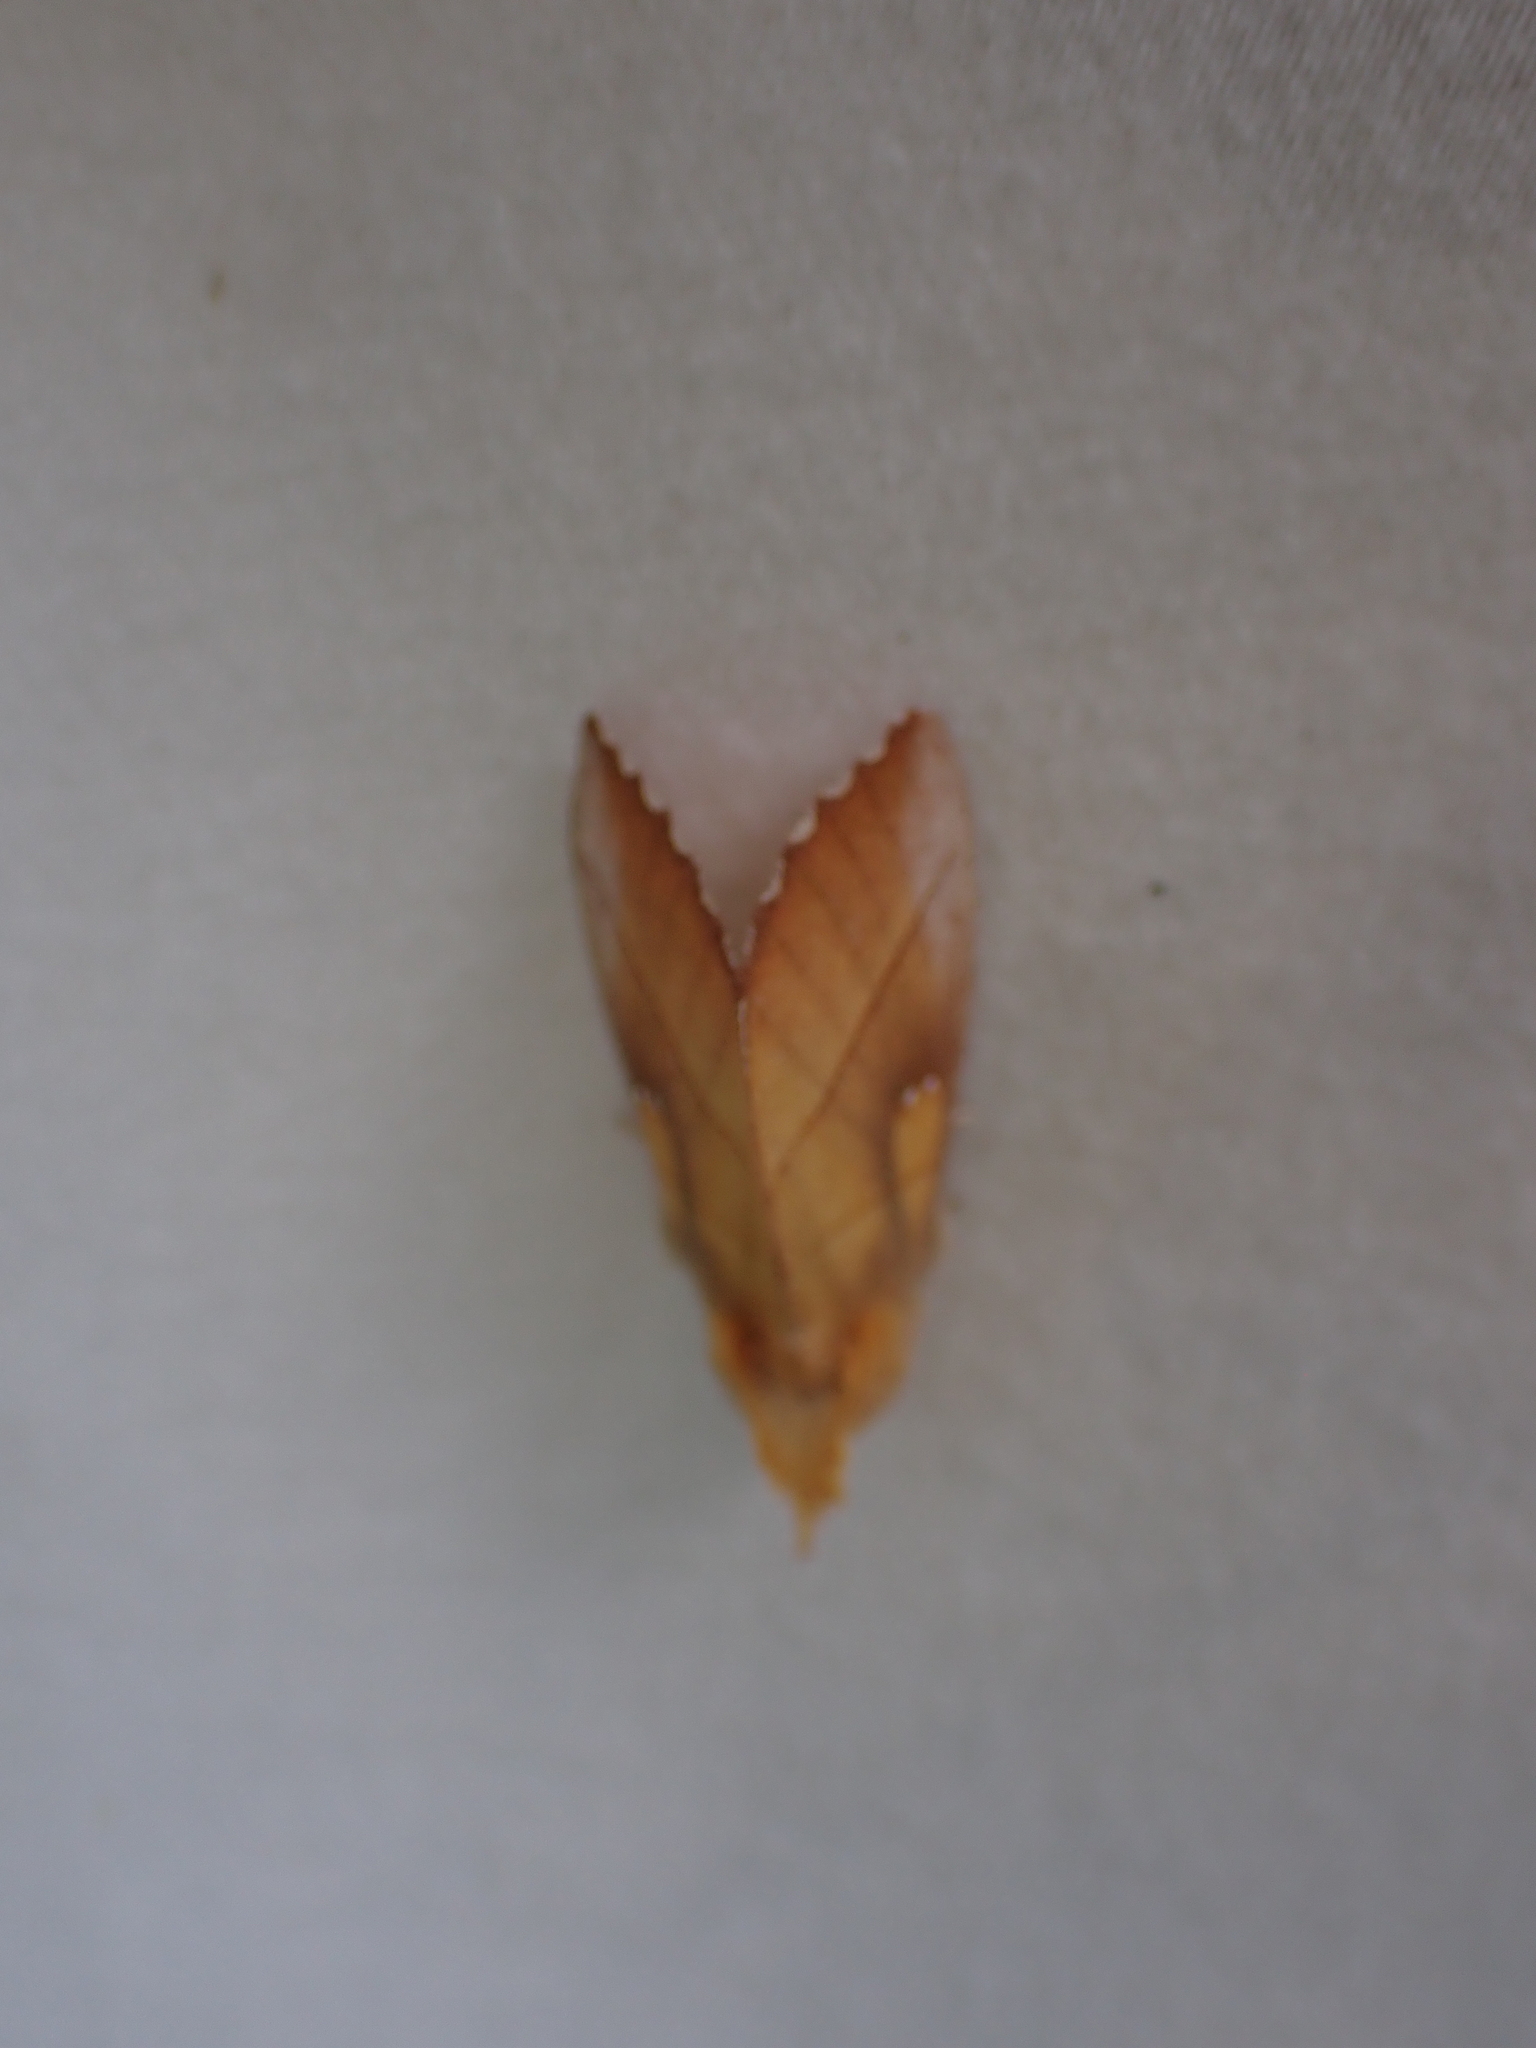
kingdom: Animalia
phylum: Arthropoda
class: Insecta
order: Lepidoptera
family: Notodontidae
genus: Nadata
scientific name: Nadata gibbosa
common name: White-dotted prominent
